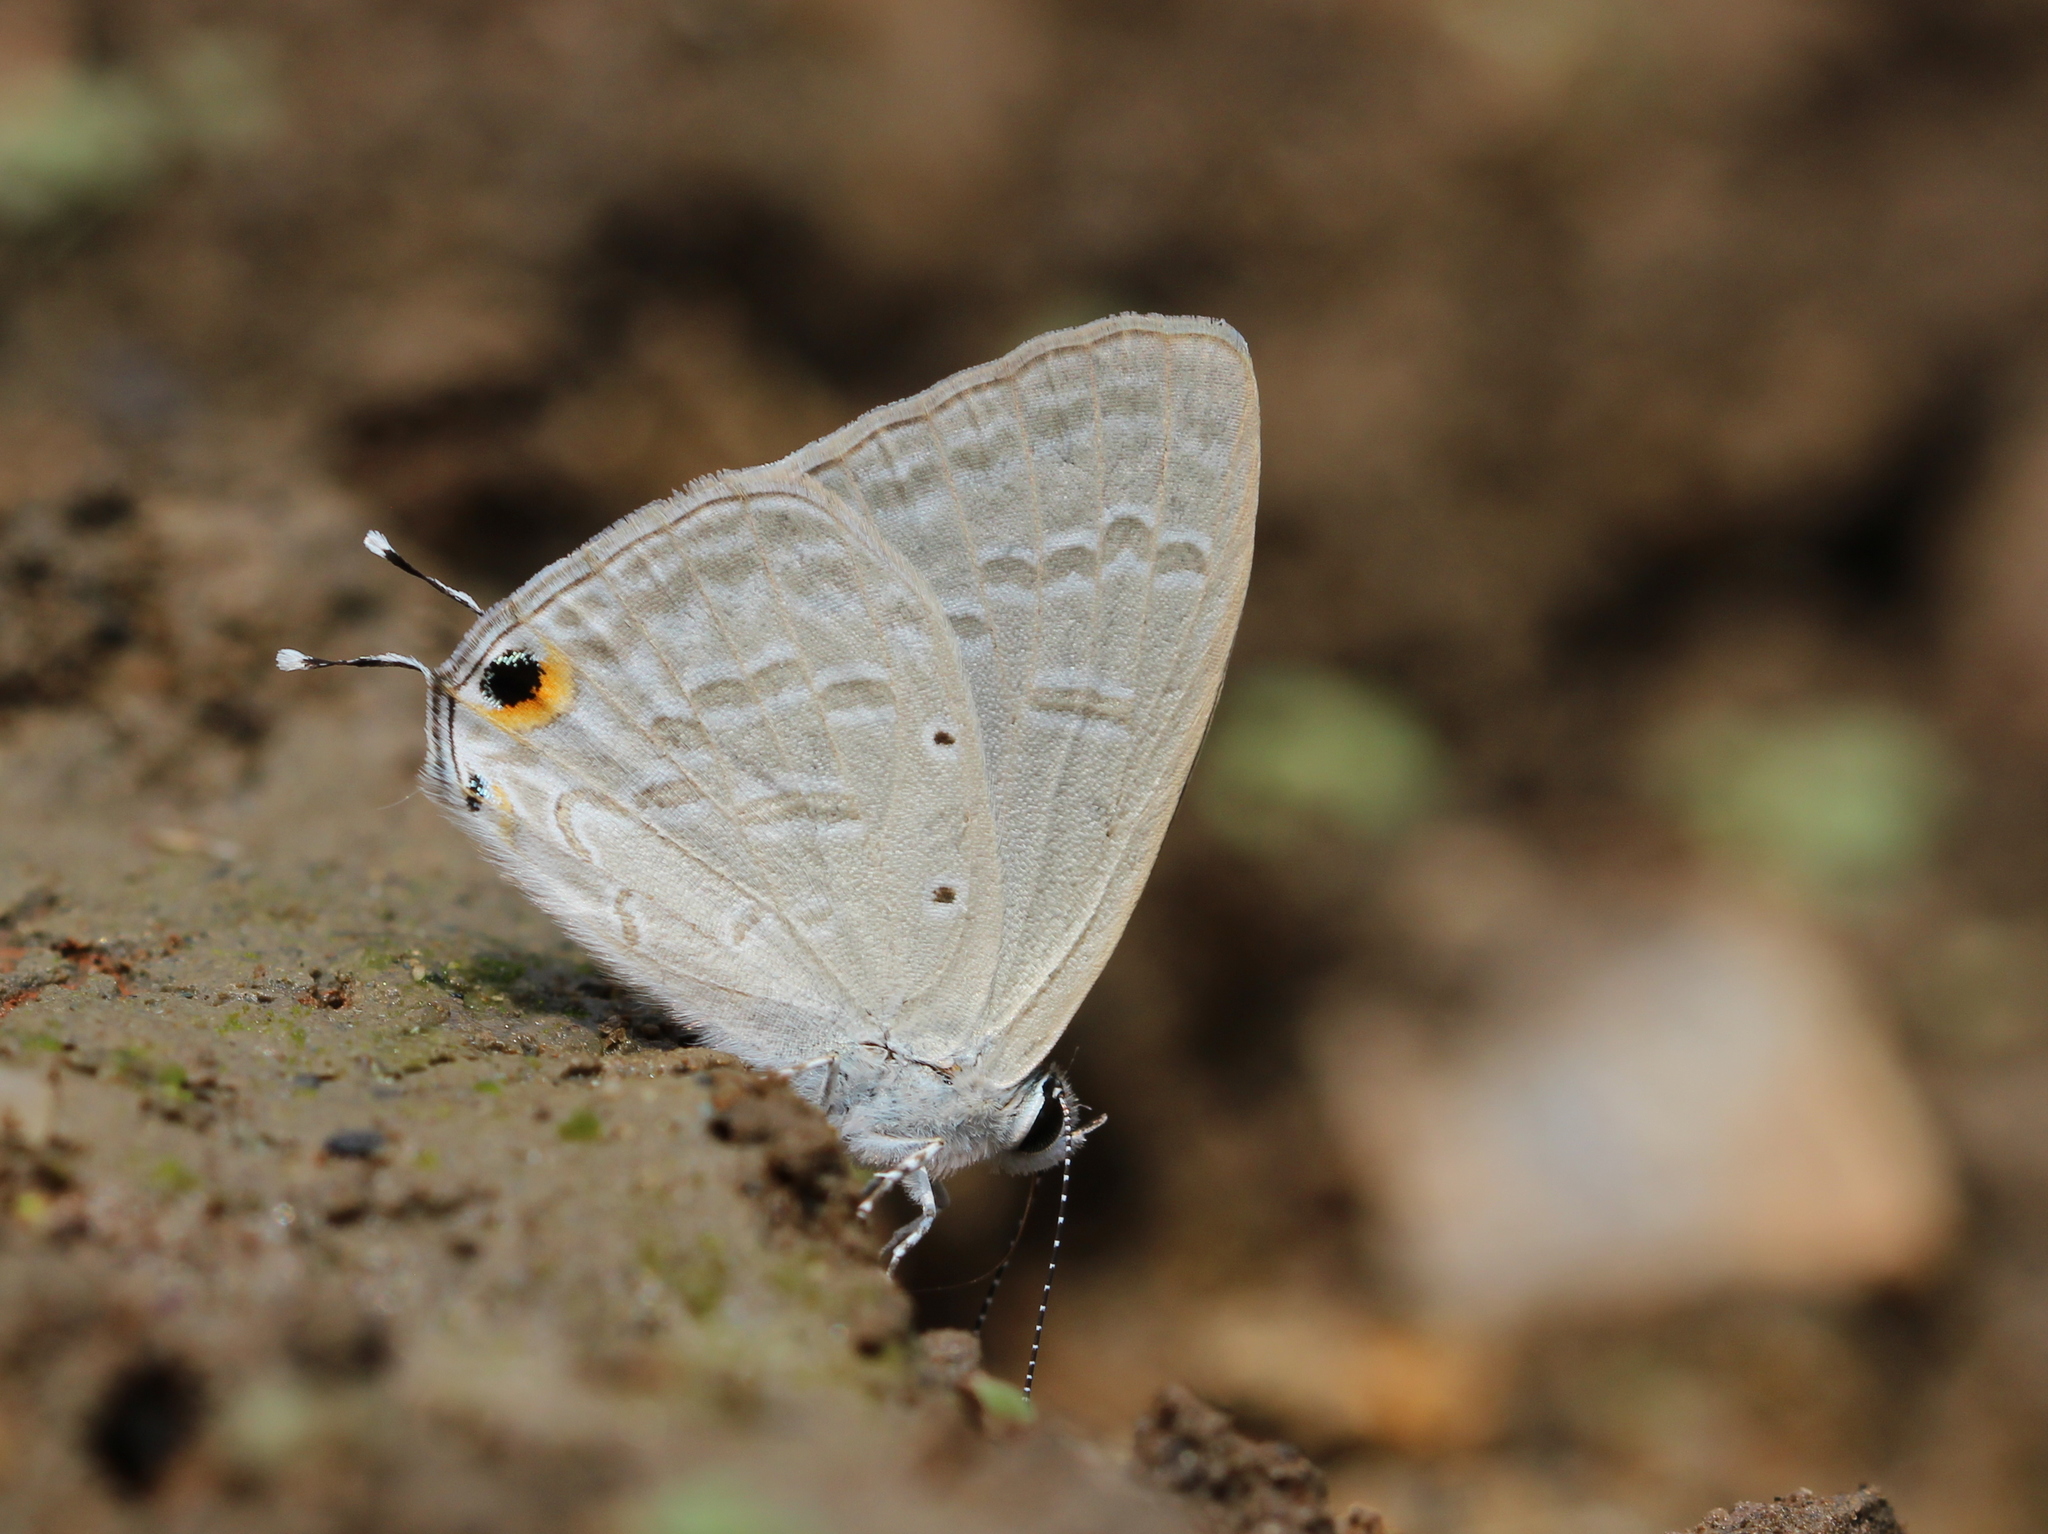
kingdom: Animalia
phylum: Arthropoda
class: Insecta
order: Lepidoptera
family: Lycaenidae
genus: Catochrysops
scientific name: Catochrysops strabo
